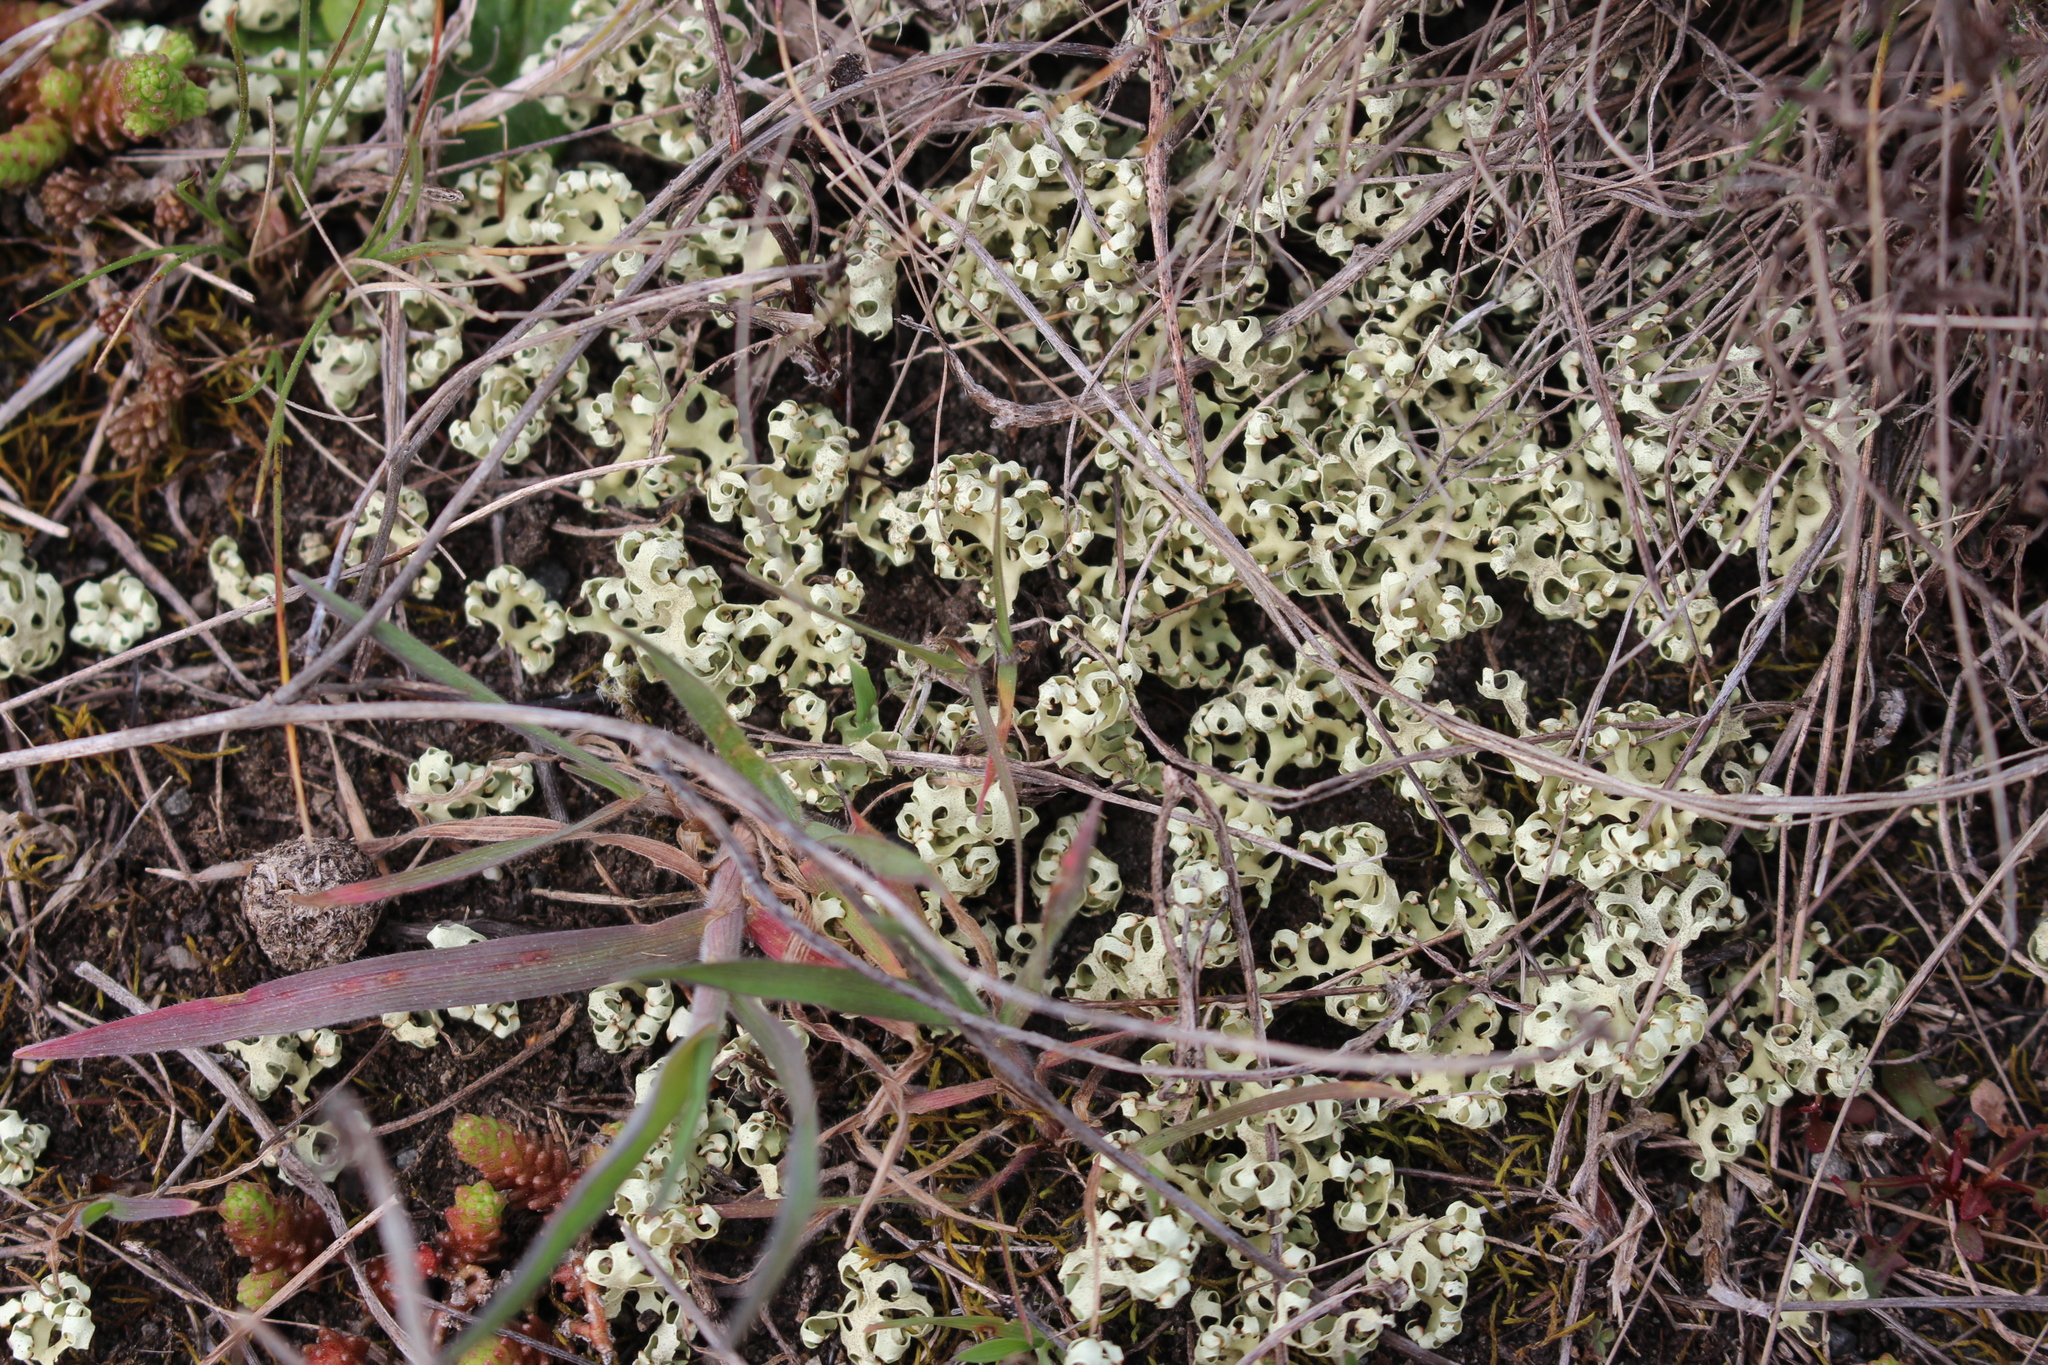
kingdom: Fungi
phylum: Ascomycota
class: Lecanoromycetes
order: Lecanorales
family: Parmeliaceae
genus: Xanthoparmelia
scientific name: Xanthoparmelia semiviridis
